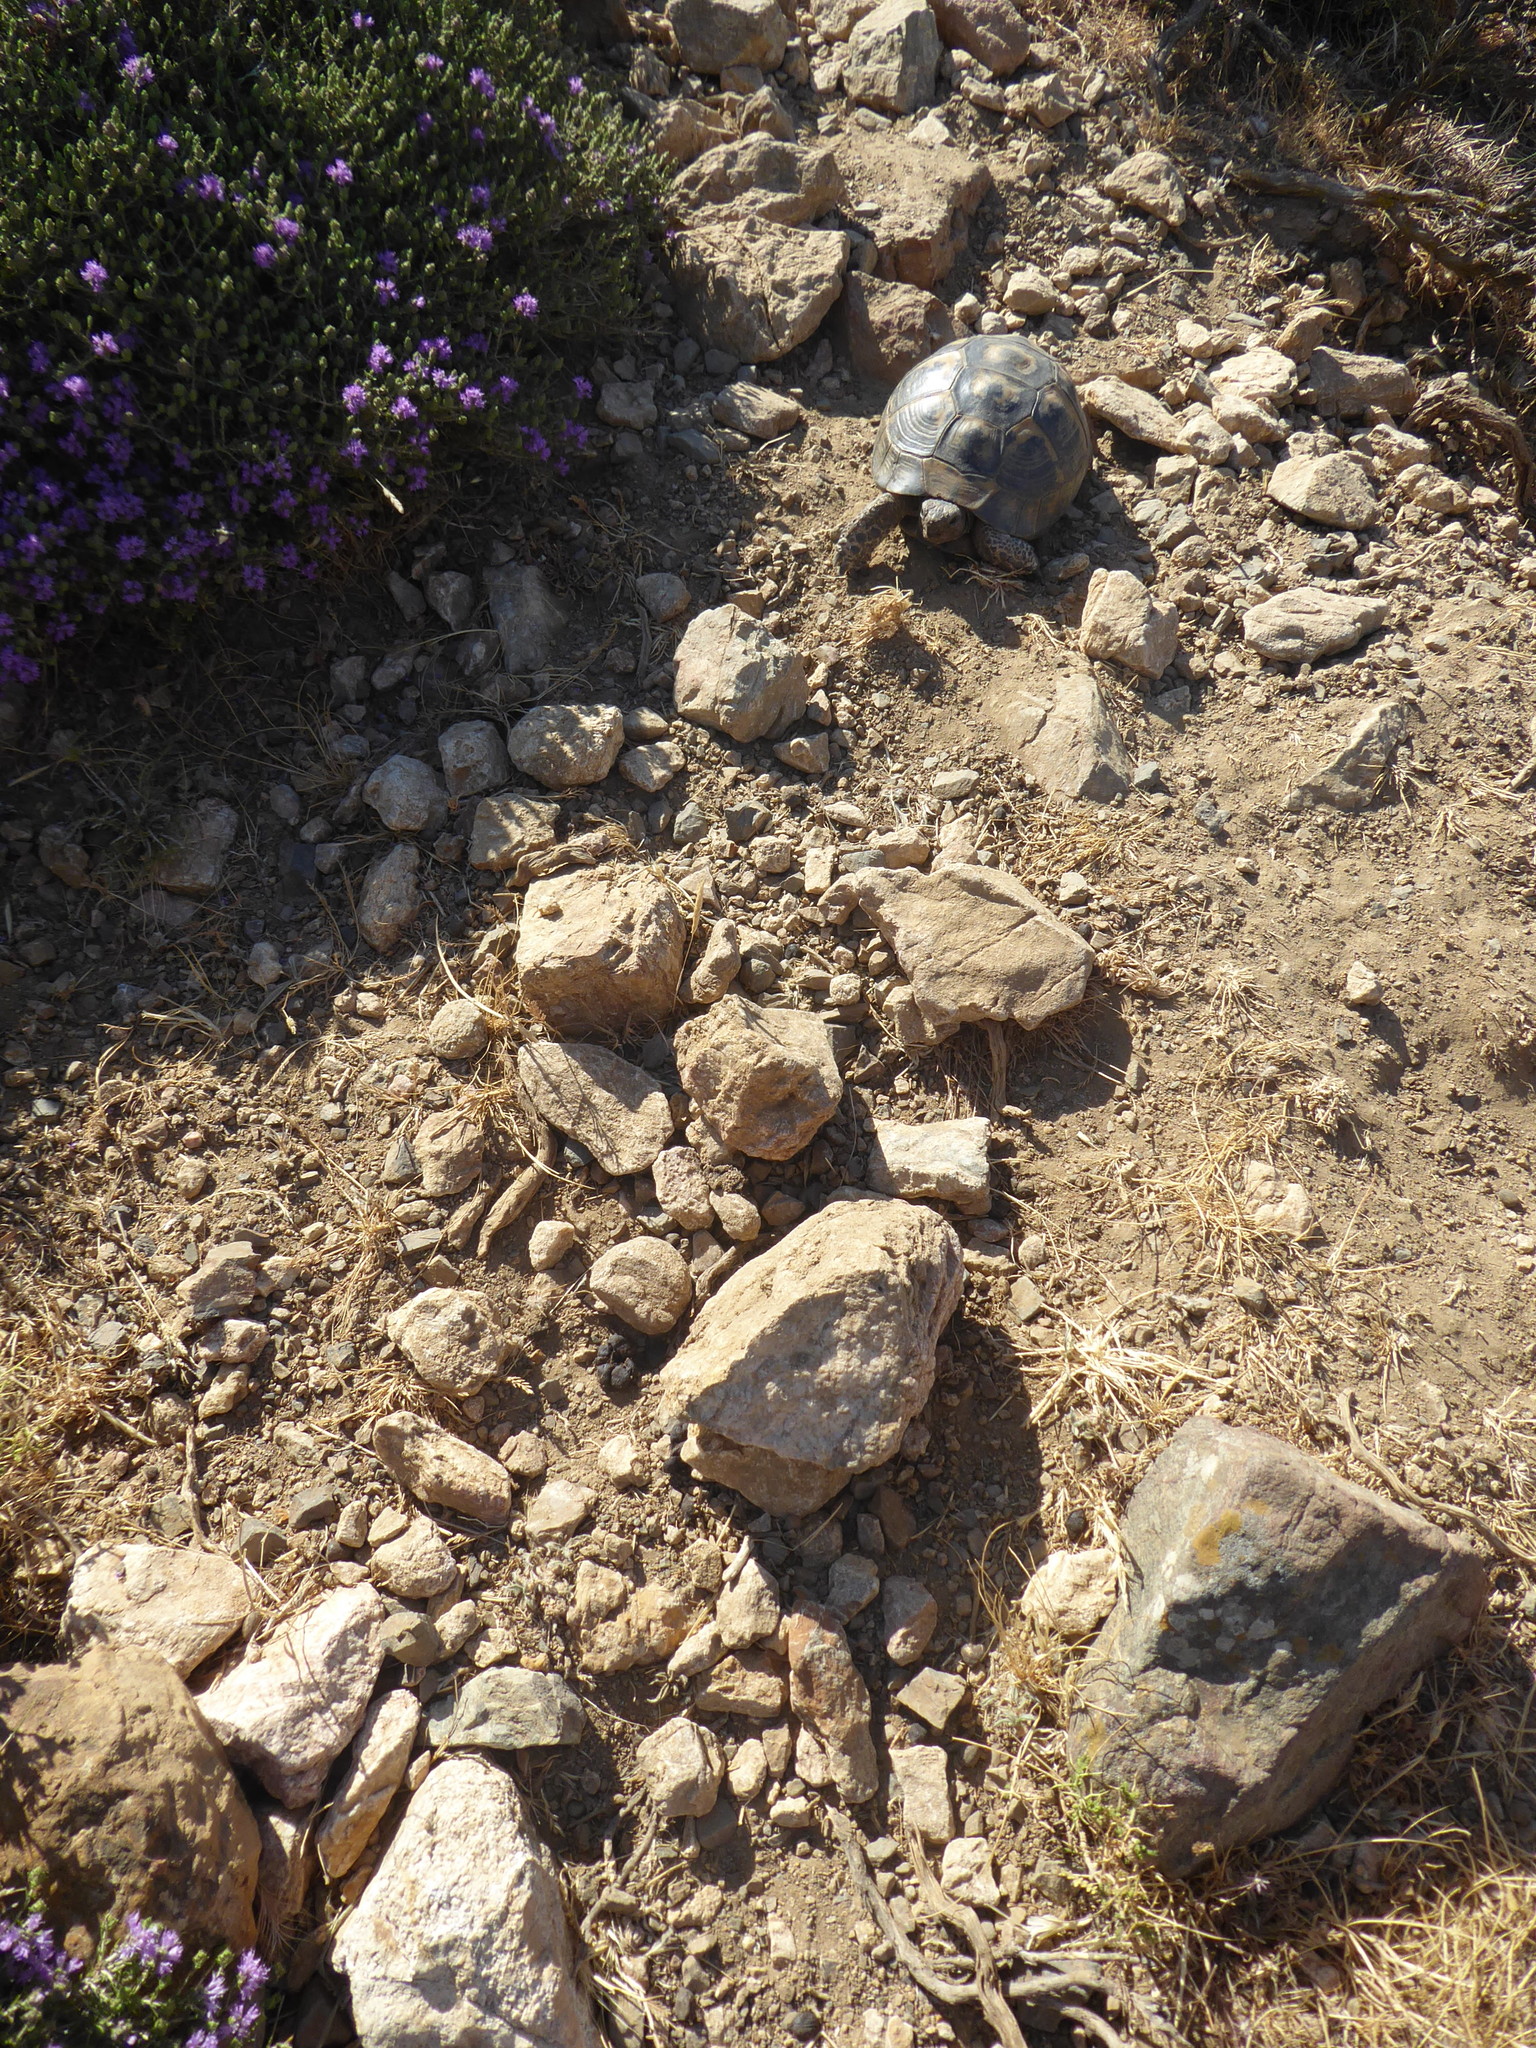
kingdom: Animalia
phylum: Chordata
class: Testudines
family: Testudinidae
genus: Testudo
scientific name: Testudo graeca
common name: Common tortoise
